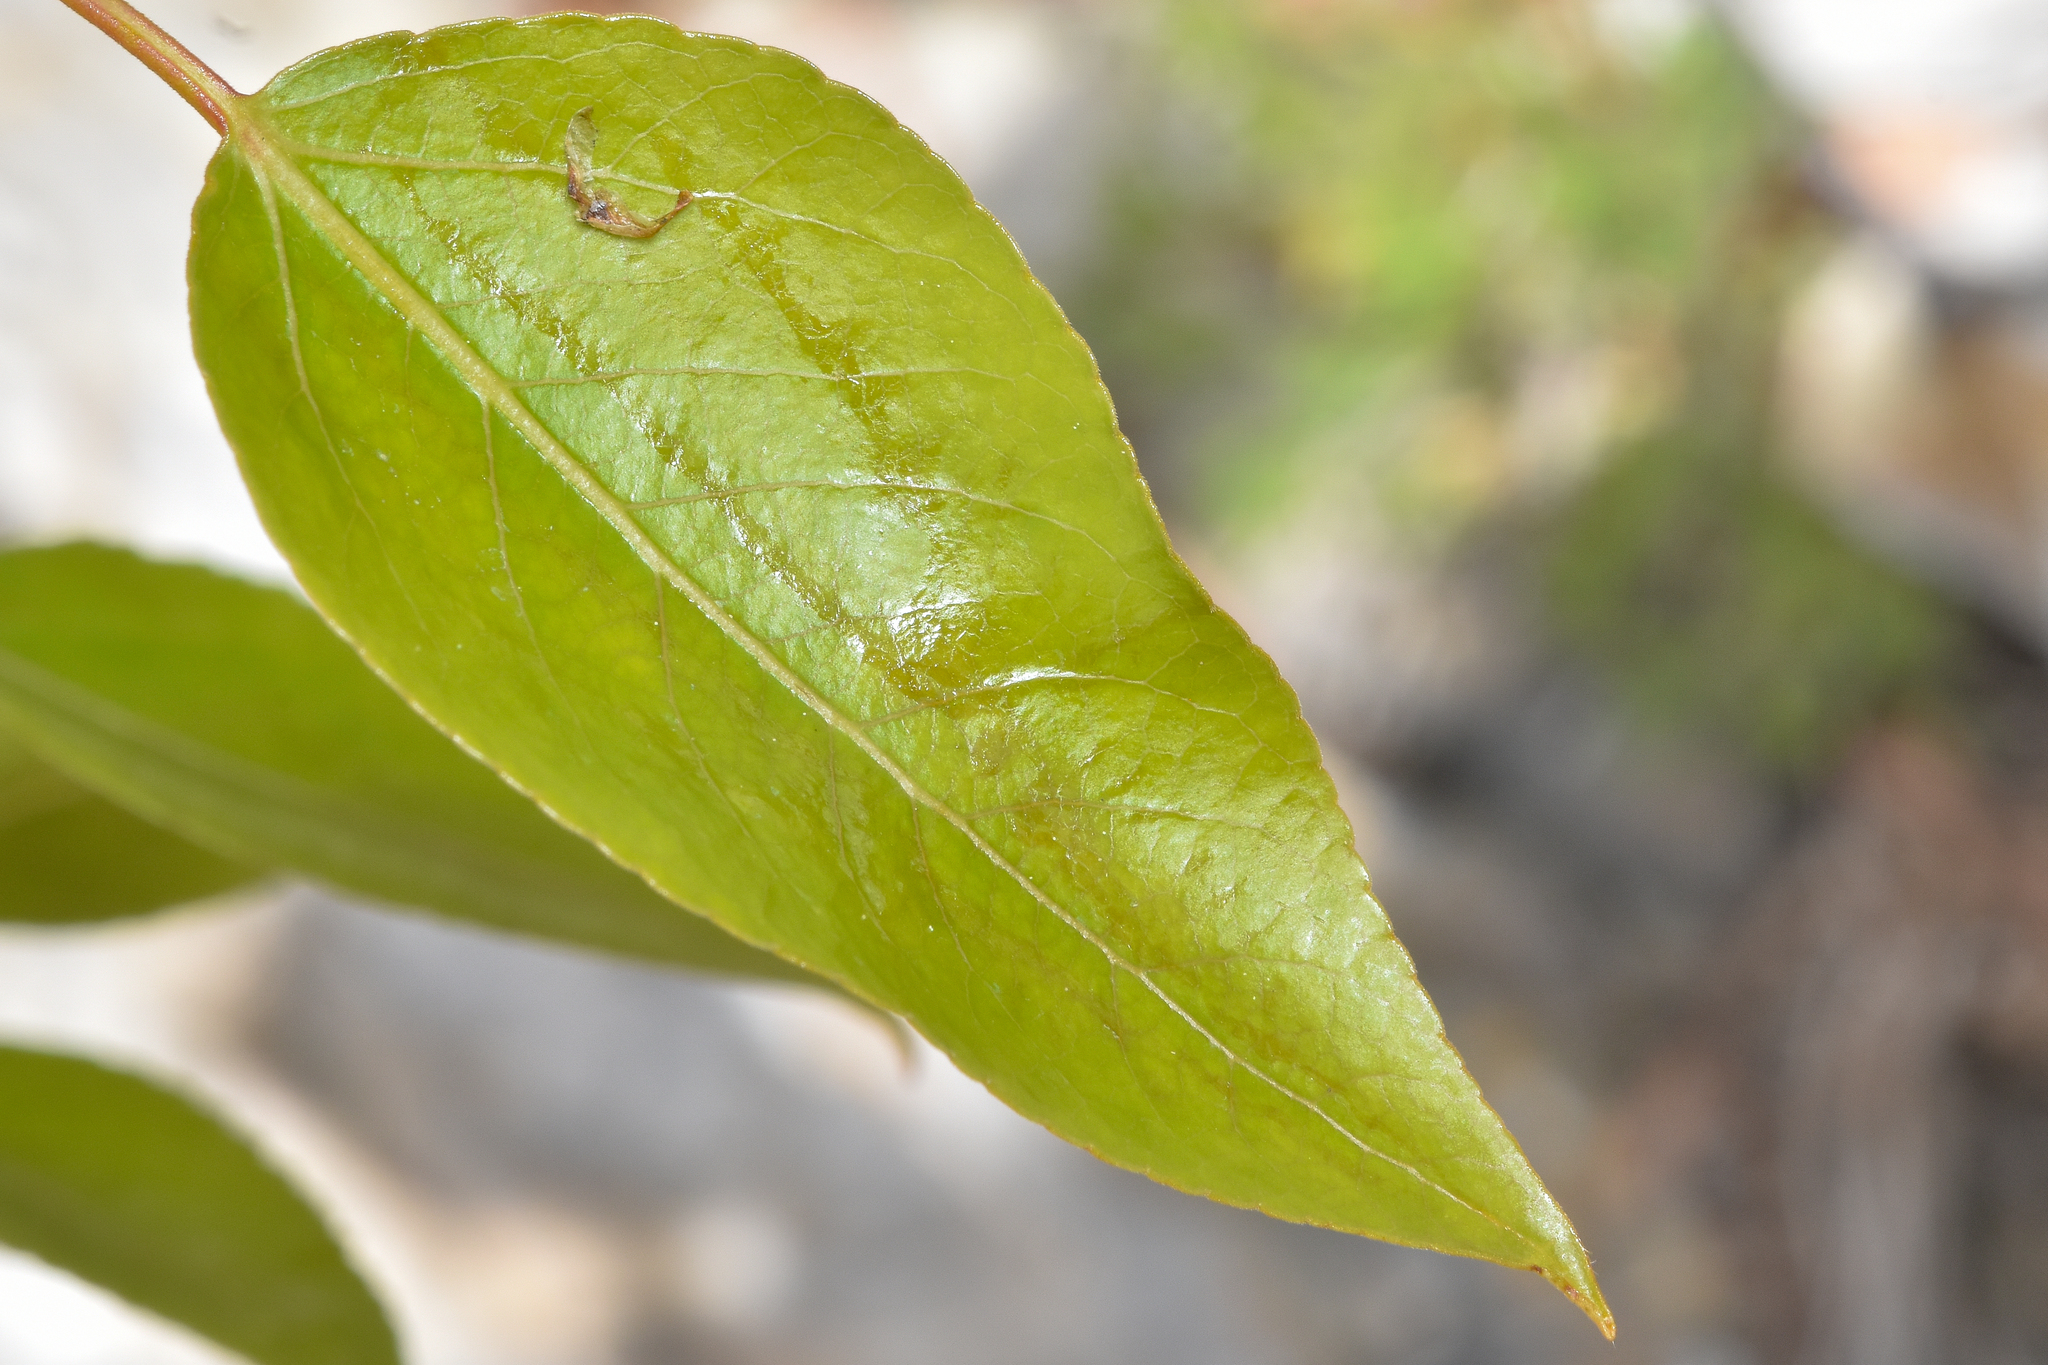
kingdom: Plantae
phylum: Tracheophyta
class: Magnoliopsida
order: Malpighiales
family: Salicaceae
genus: Populus
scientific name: Populus trichocarpa
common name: Black cottonwood
